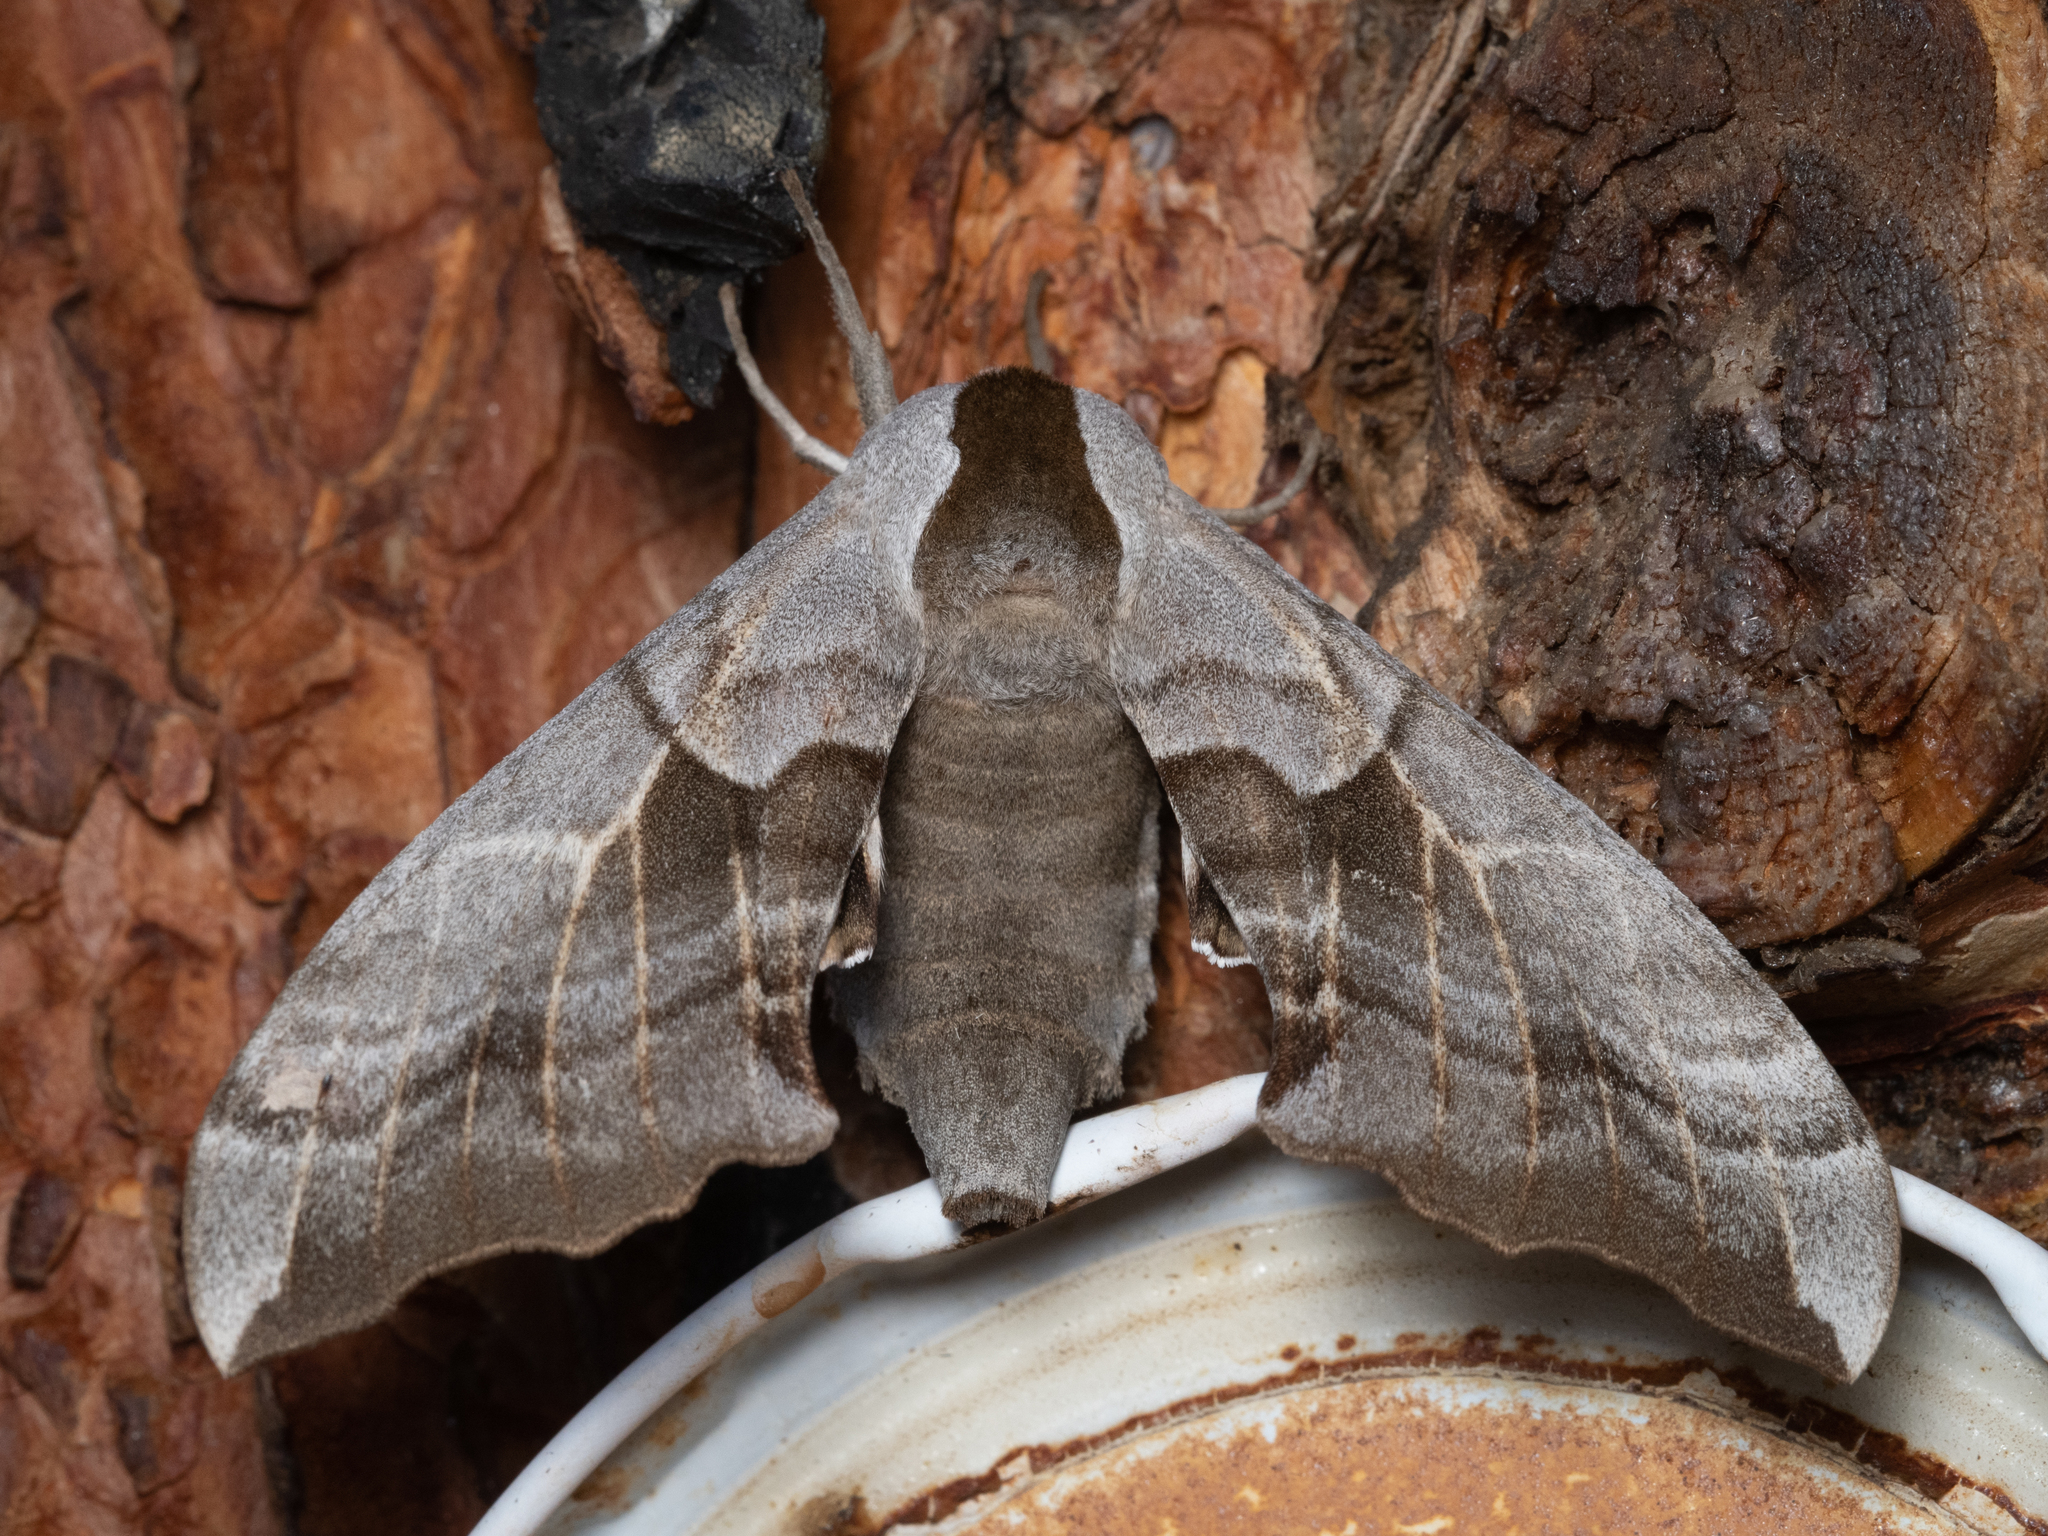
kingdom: Animalia
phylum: Arthropoda
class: Insecta
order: Lepidoptera
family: Sphingidae
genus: Smerinthus
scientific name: Smerinthus cerisyi
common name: Cerisy's sphinx moth
